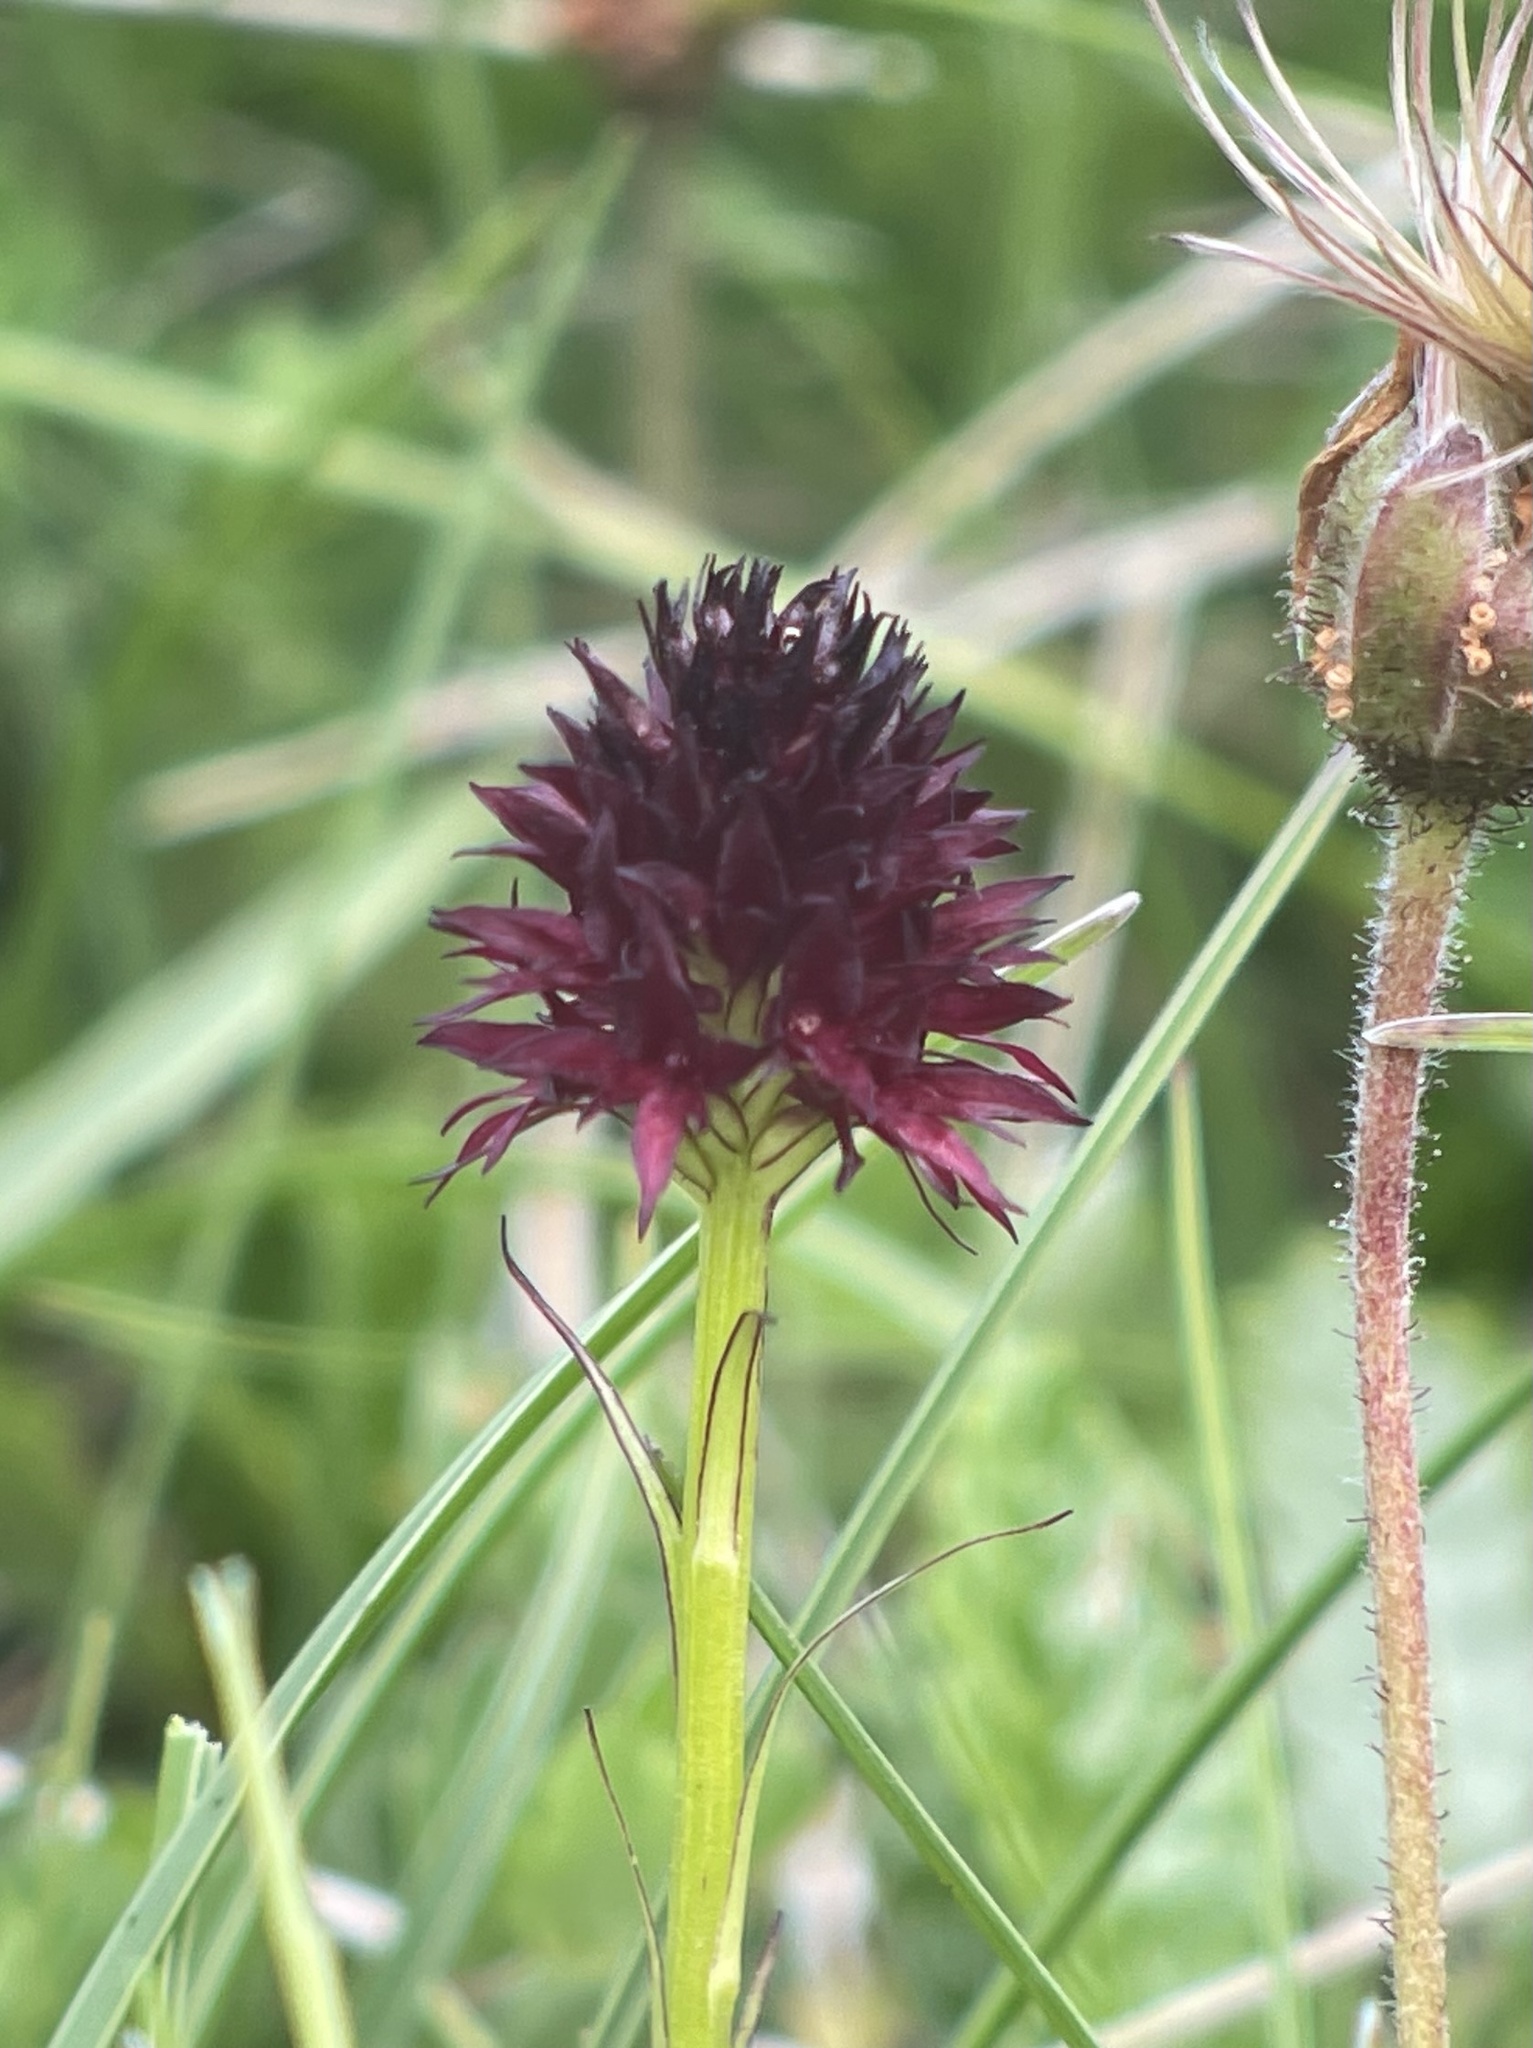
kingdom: Plantae
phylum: Tracheophyta
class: Liliopsida
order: Asparagales
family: Orchidaceae
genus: Gymnadenia
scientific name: Gymnadenia rhellicani
